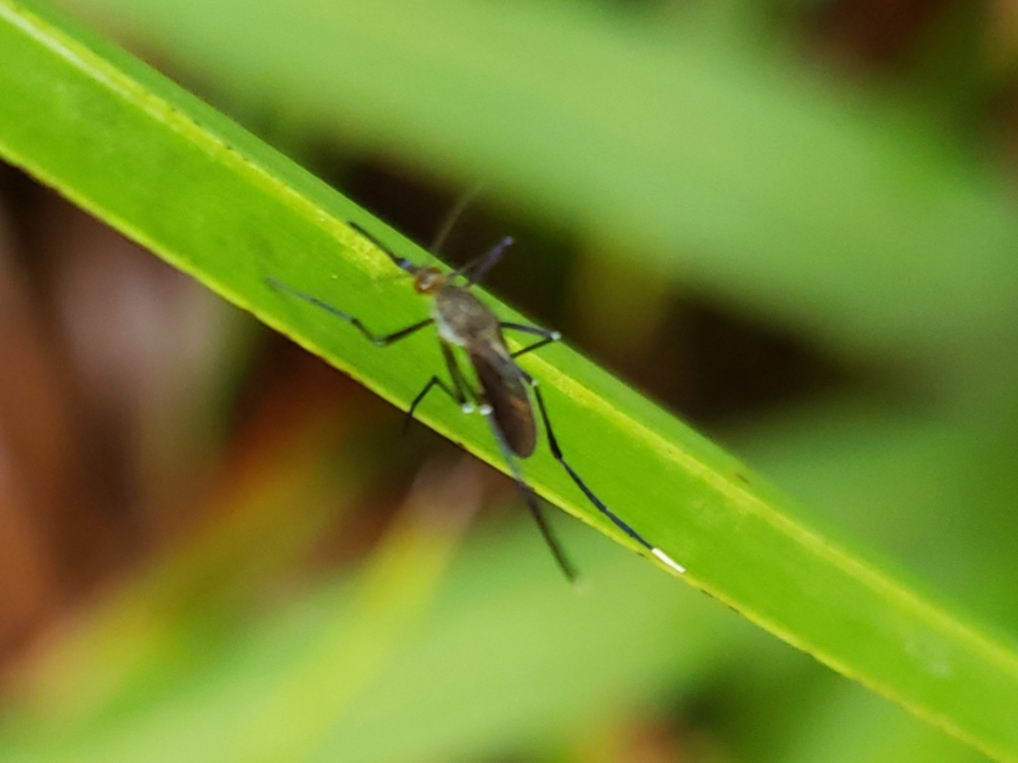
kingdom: Animalia
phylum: Arthropoda
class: Insecta
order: Diptera
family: Culicidae
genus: Psorophora
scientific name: Psorophora ferox
